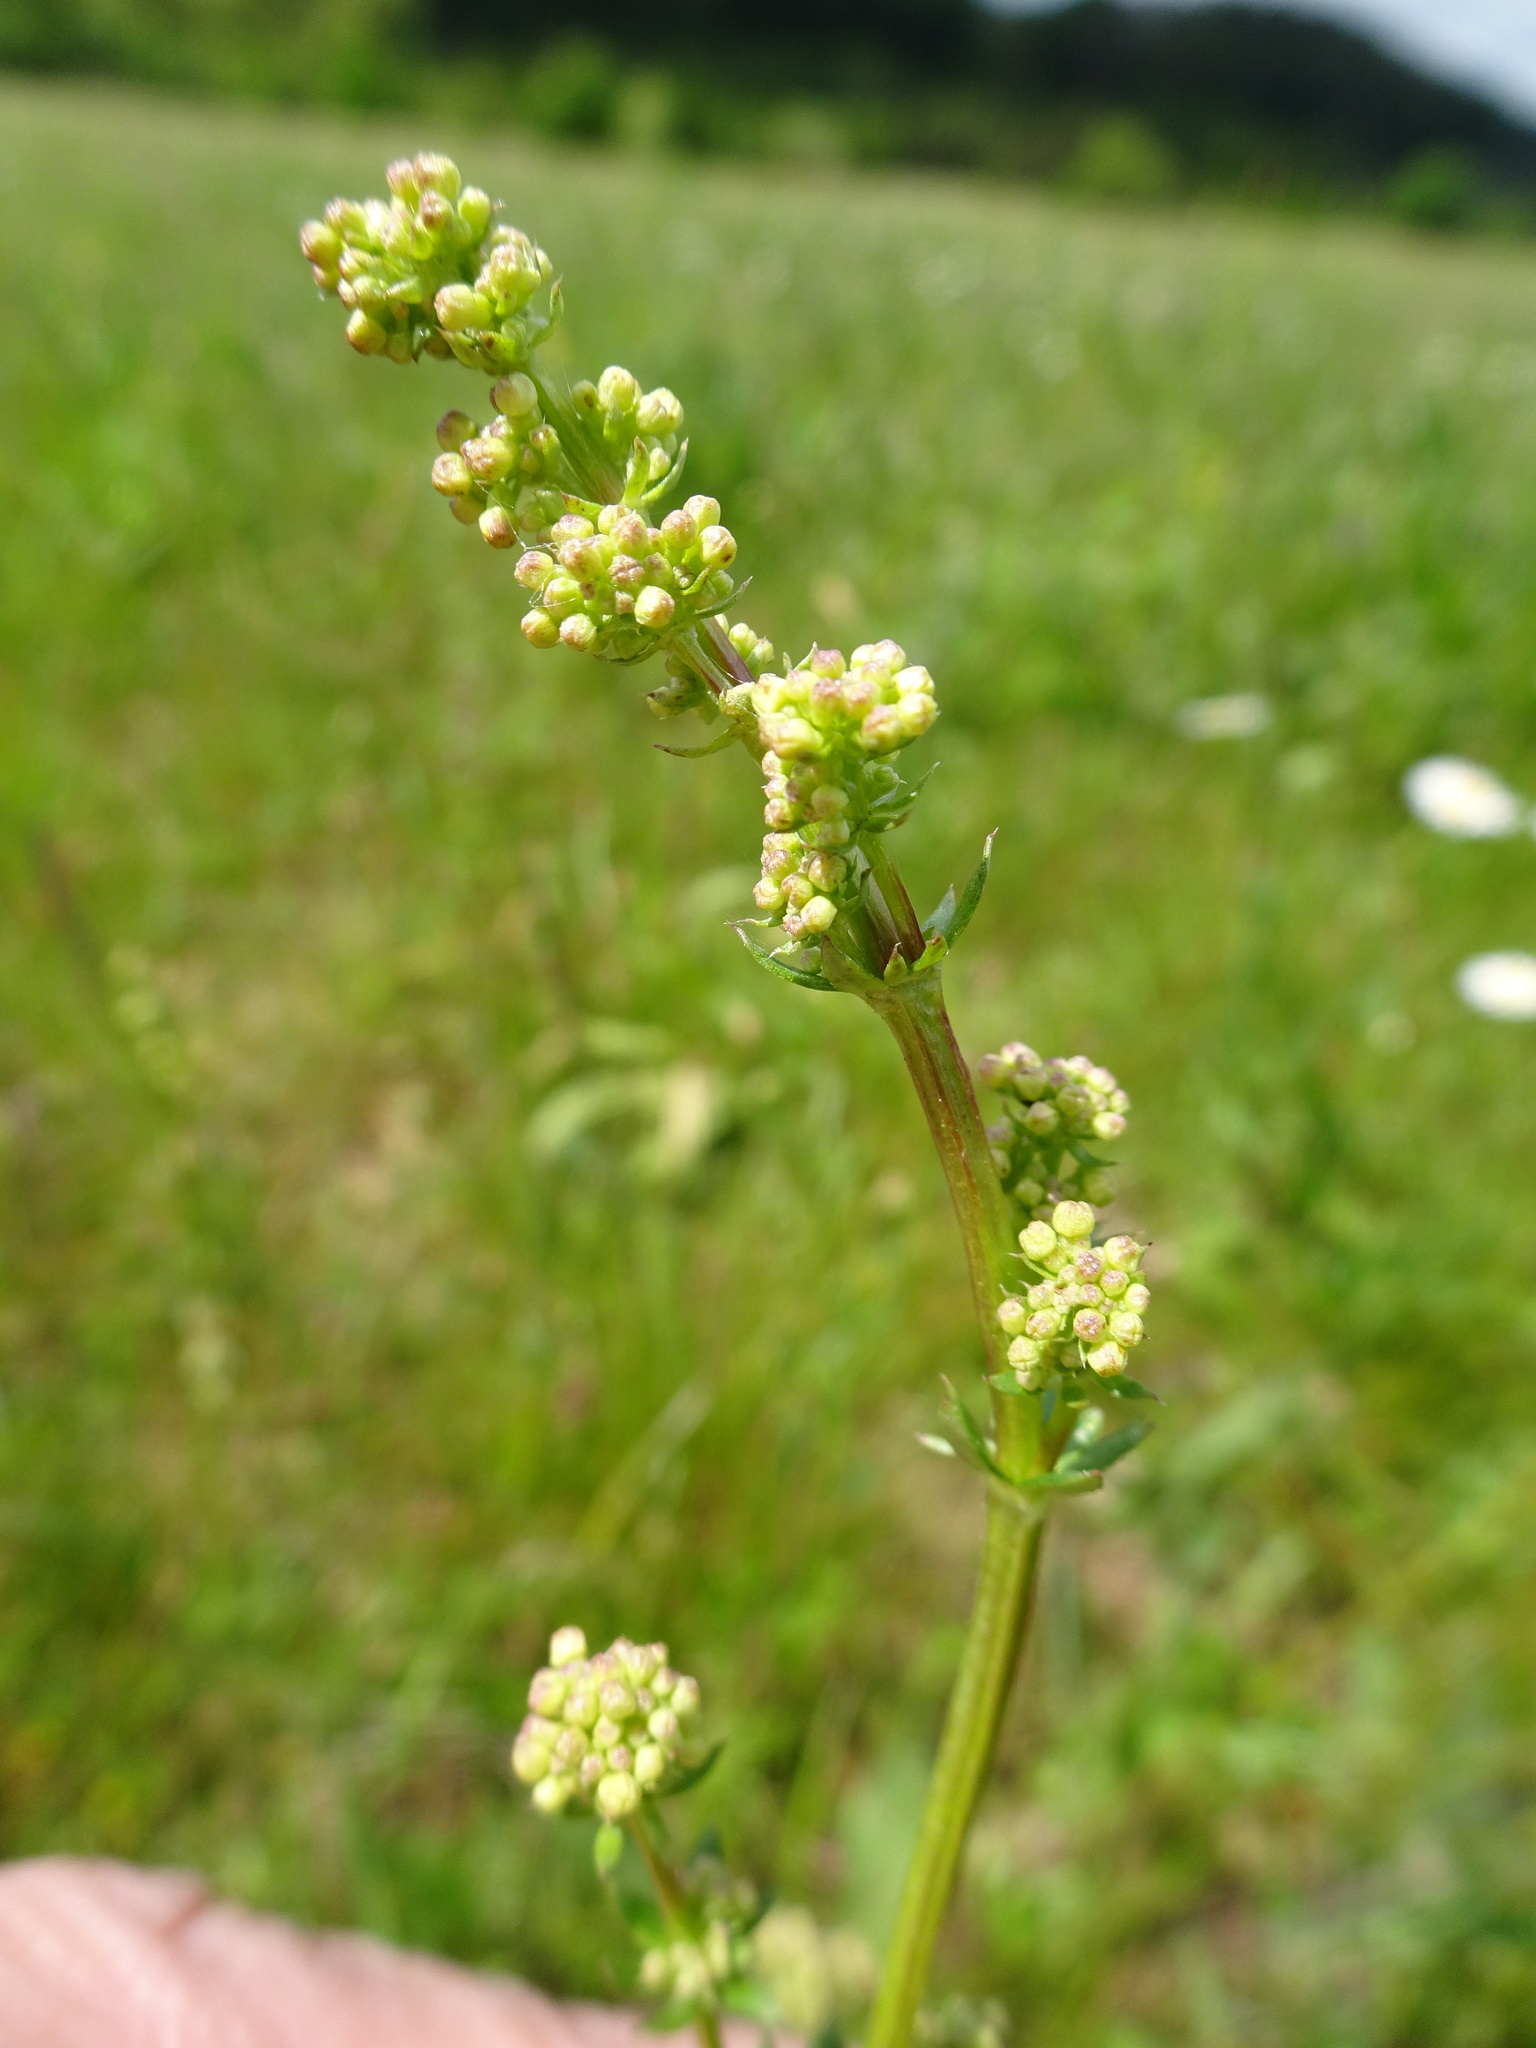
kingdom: Plantae
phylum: Tracheophyta
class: Magnoliopsida
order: Gentianales
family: Rubiaceae
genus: Galium
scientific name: Galium album
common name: White bedstraw
